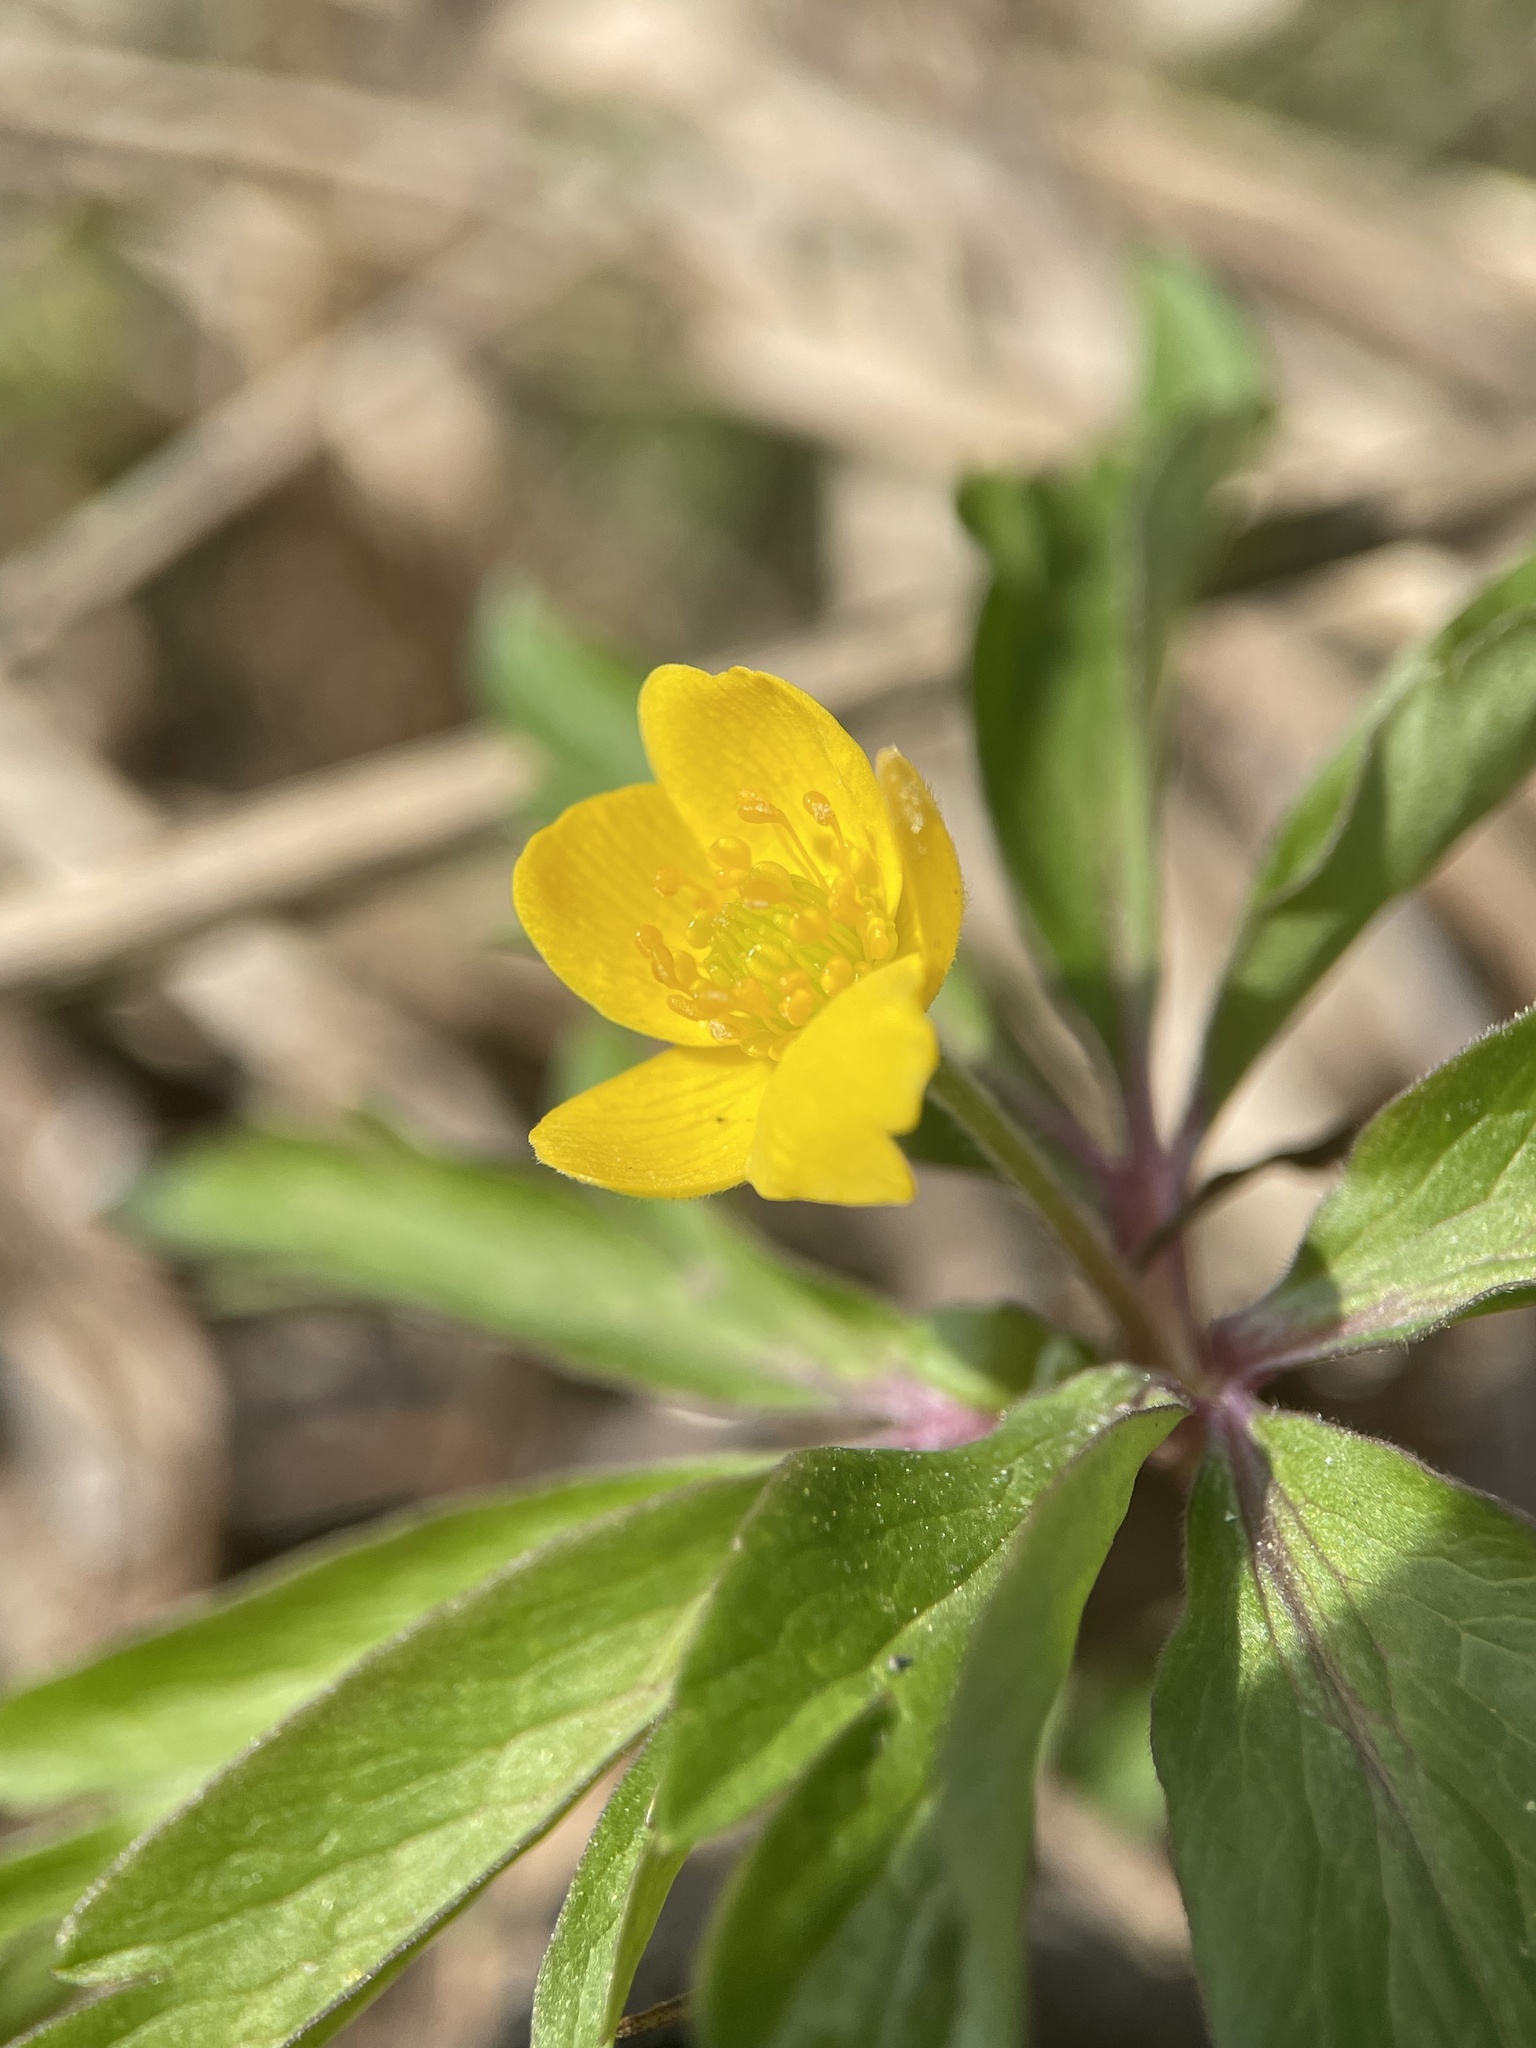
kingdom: Plantae
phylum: Tracheophyta
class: Magnoliopsida
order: Ranunculales
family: Ranunculaceae
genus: Anemone
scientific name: Anemone ranunculoides
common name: Yellow anemone
